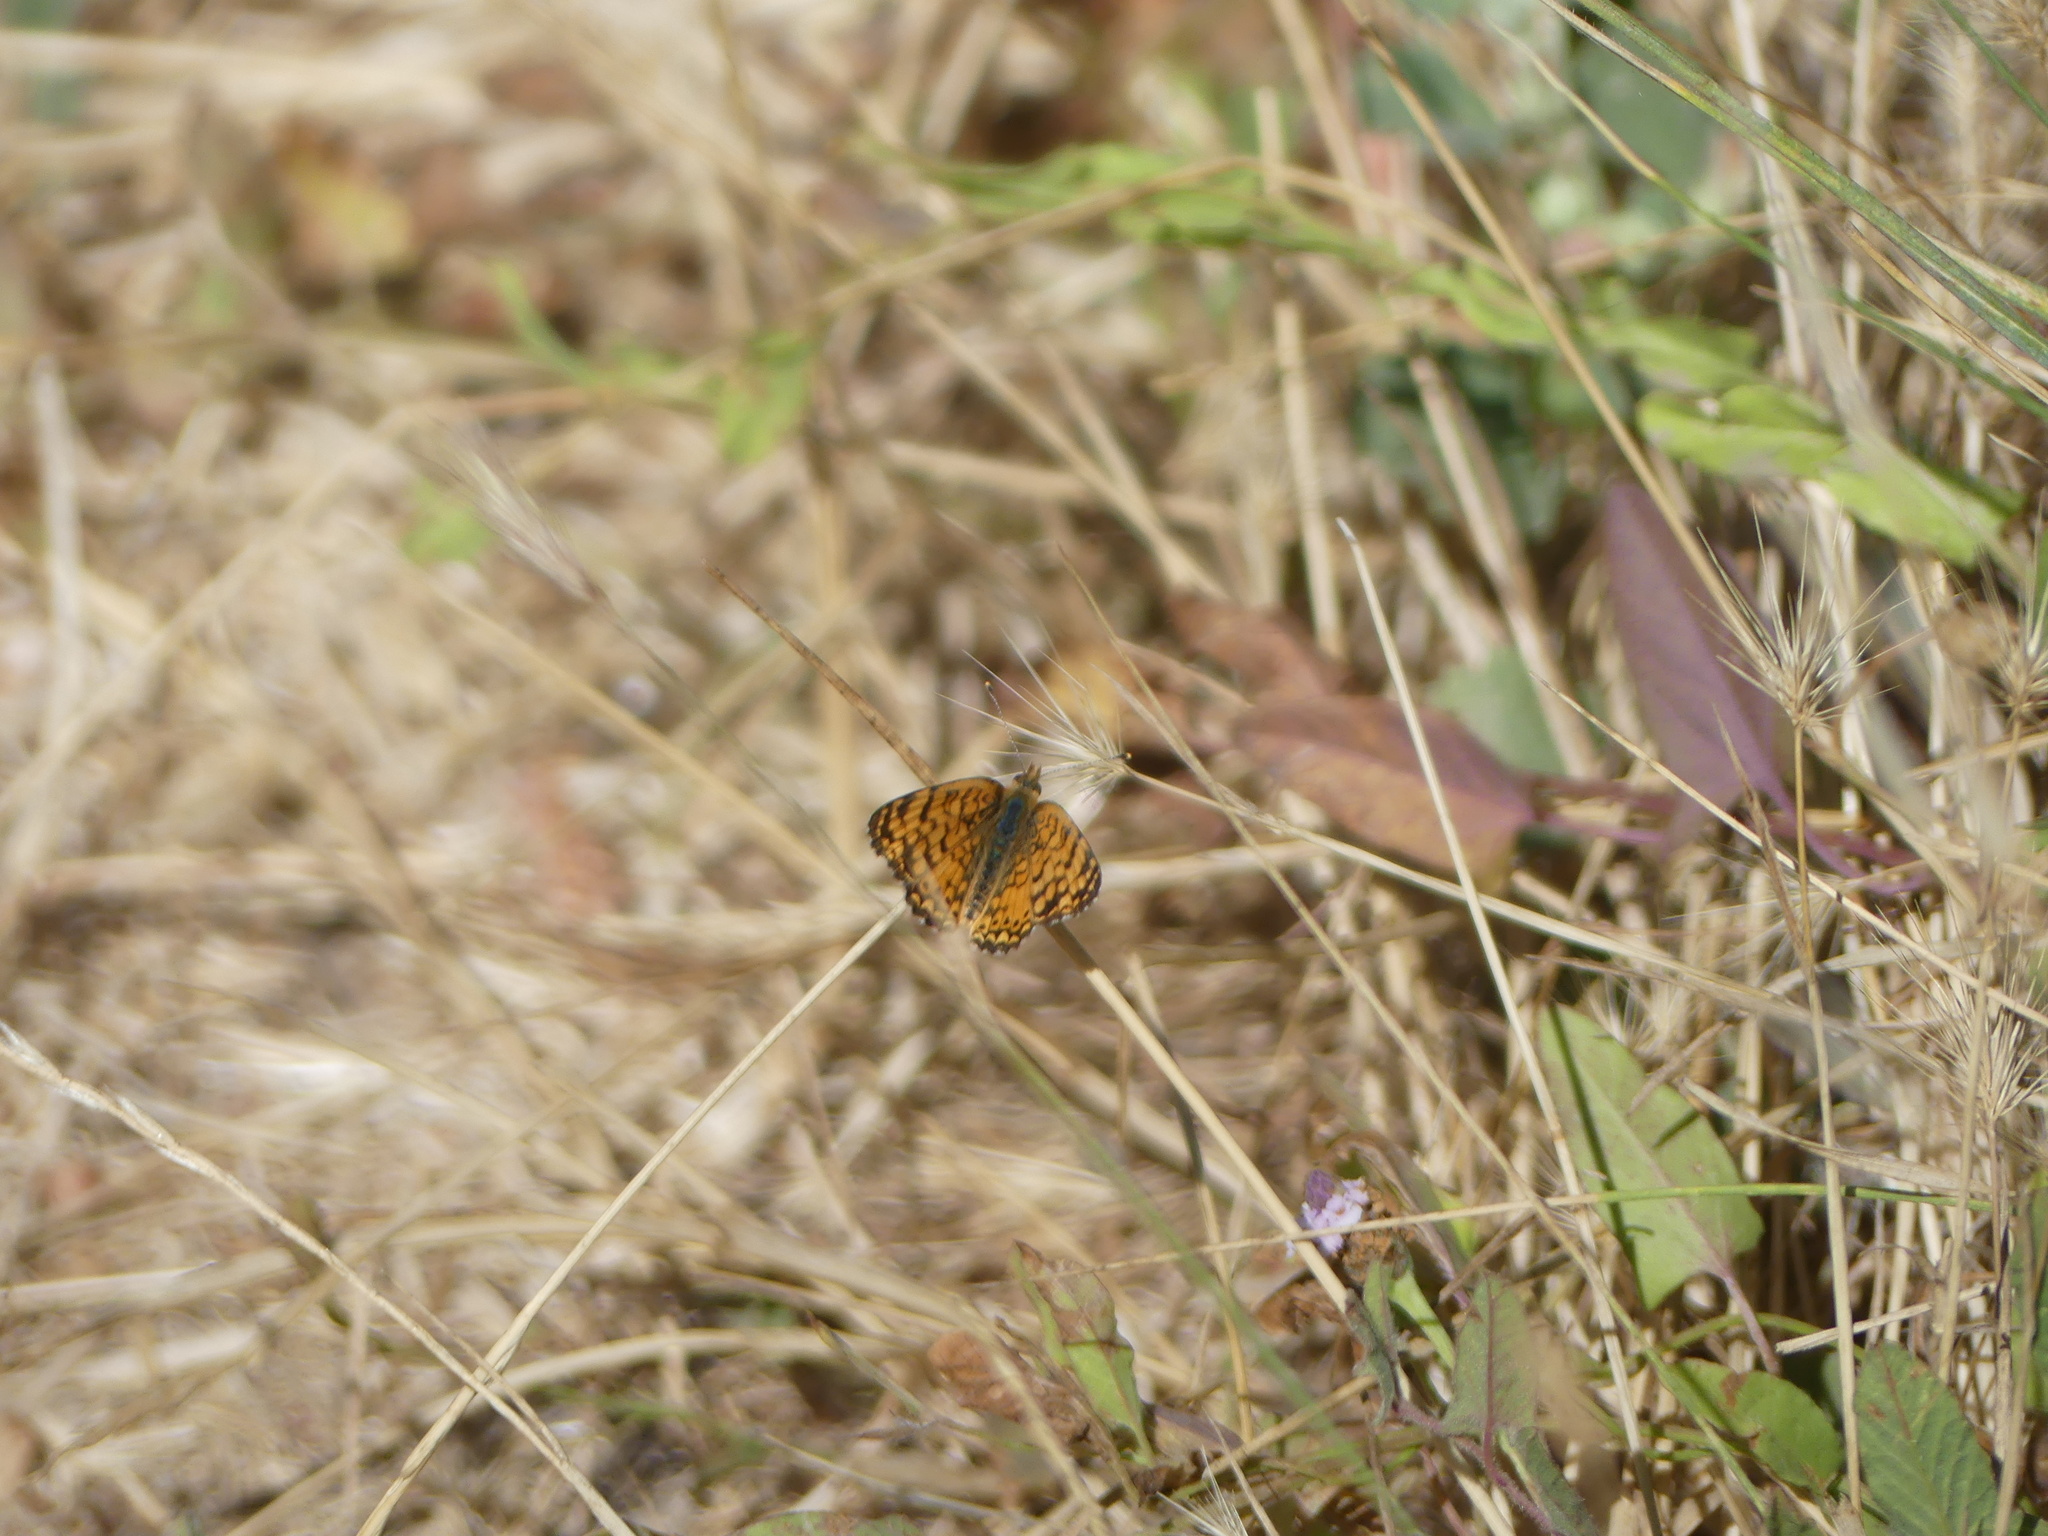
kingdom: Animalia
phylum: Arthropoda
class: Insecta
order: Lepidoptera
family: Nymphalidae
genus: Eresia
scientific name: Eresia aveyrona
